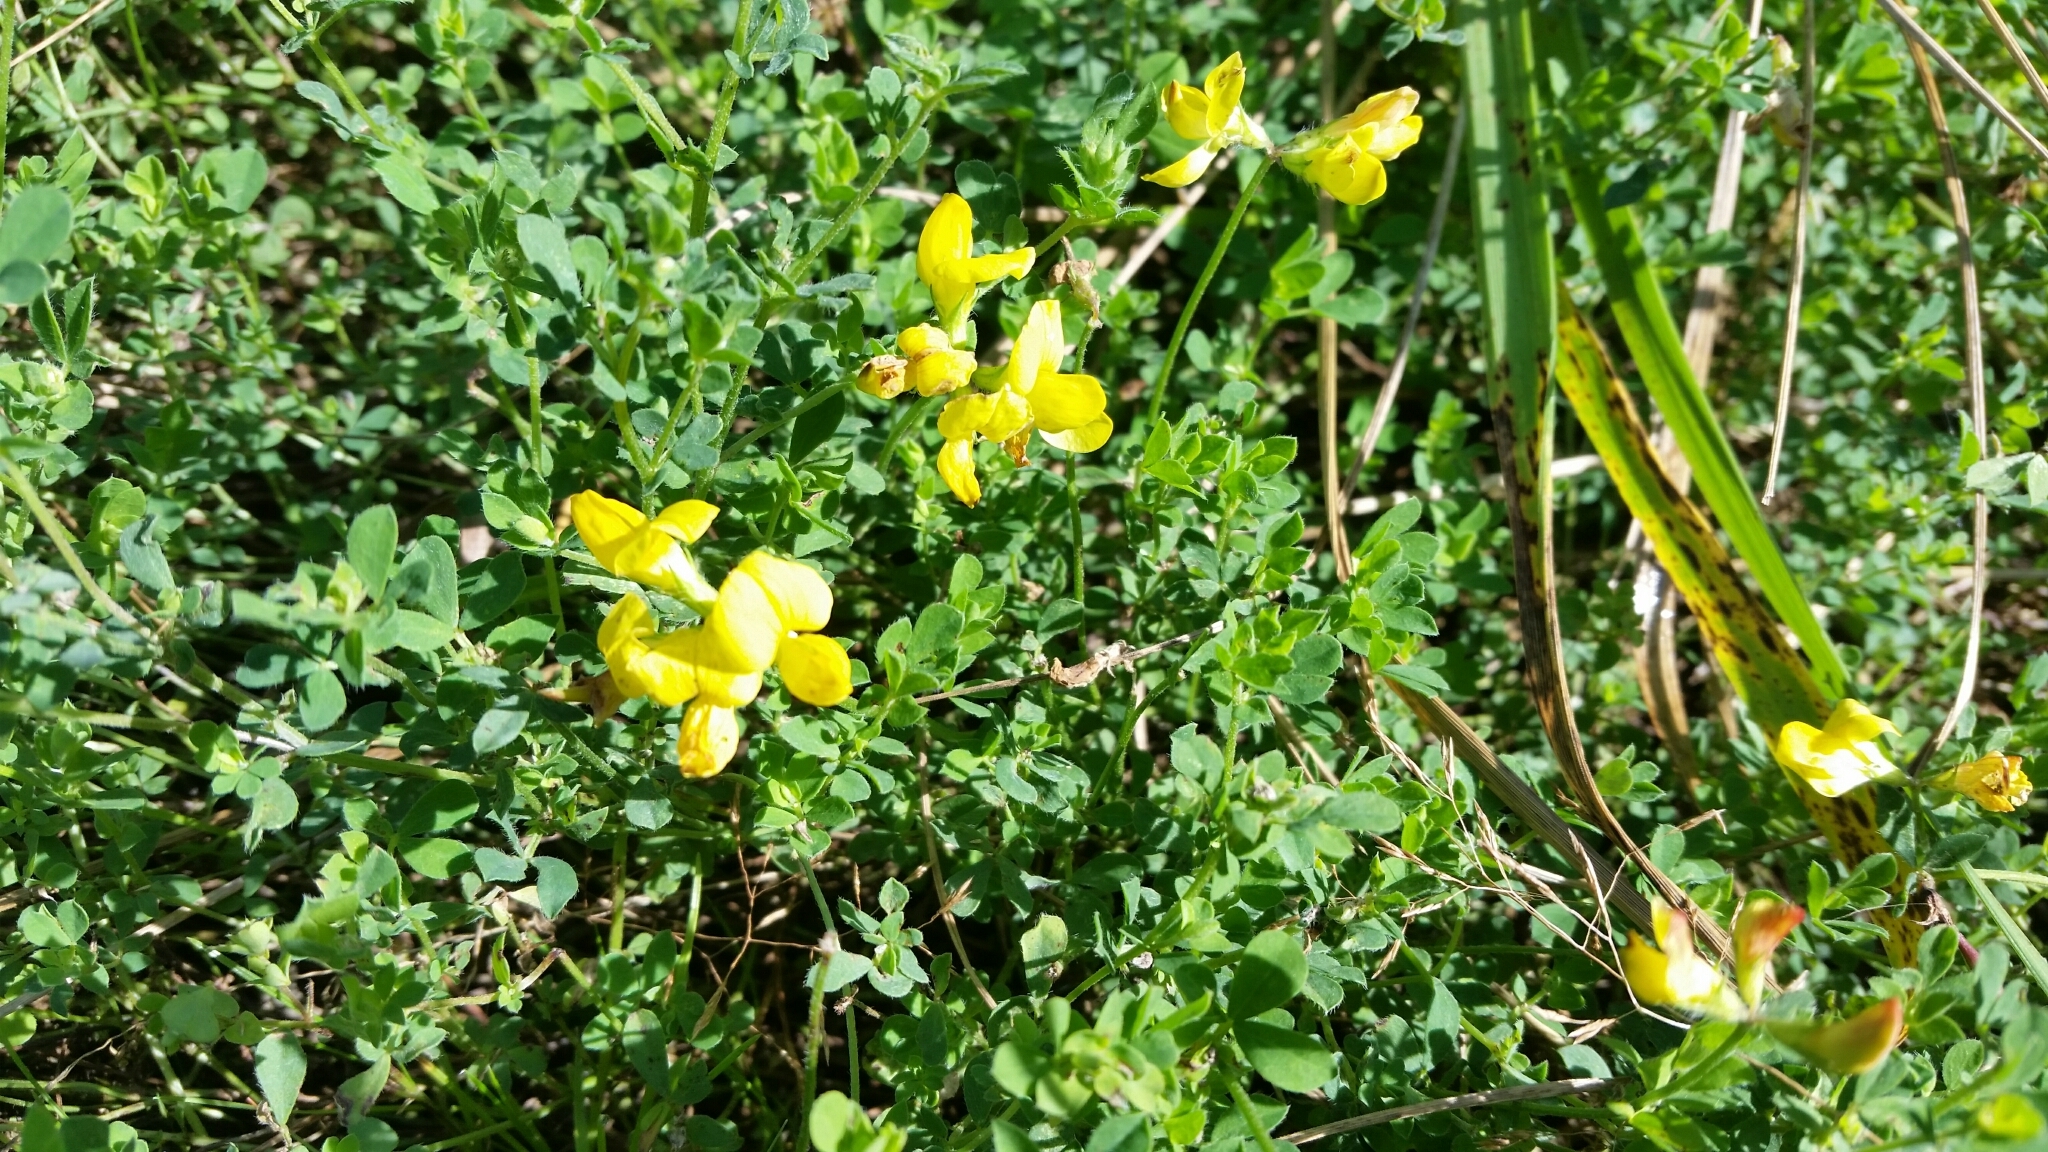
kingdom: Plantae
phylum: Tracheophyta
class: Magnoliopsida
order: Fabales
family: Fabaceae
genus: Lotus
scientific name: Lotus corniculatus
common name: Common bird's-foot-trefoil
